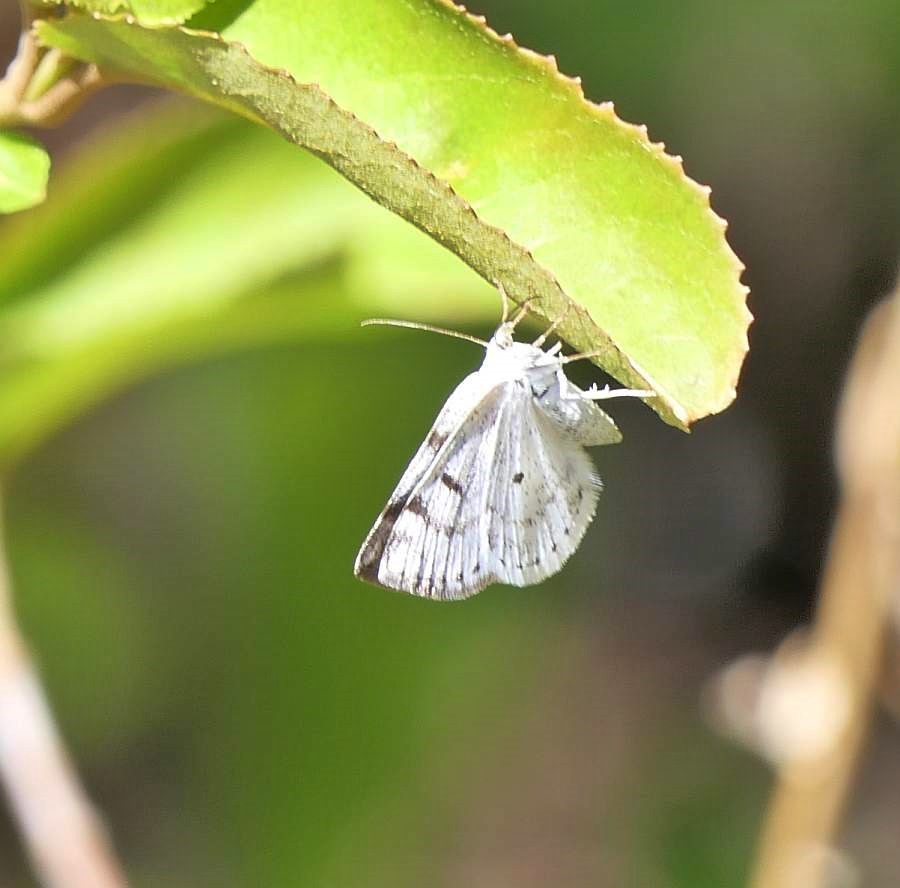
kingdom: Animalia
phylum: Arthropoda
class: Insecta
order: Lepidoptera
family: Geometridae
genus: Lomographa
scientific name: Lomographa semiclarata
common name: Bluish spring moth
